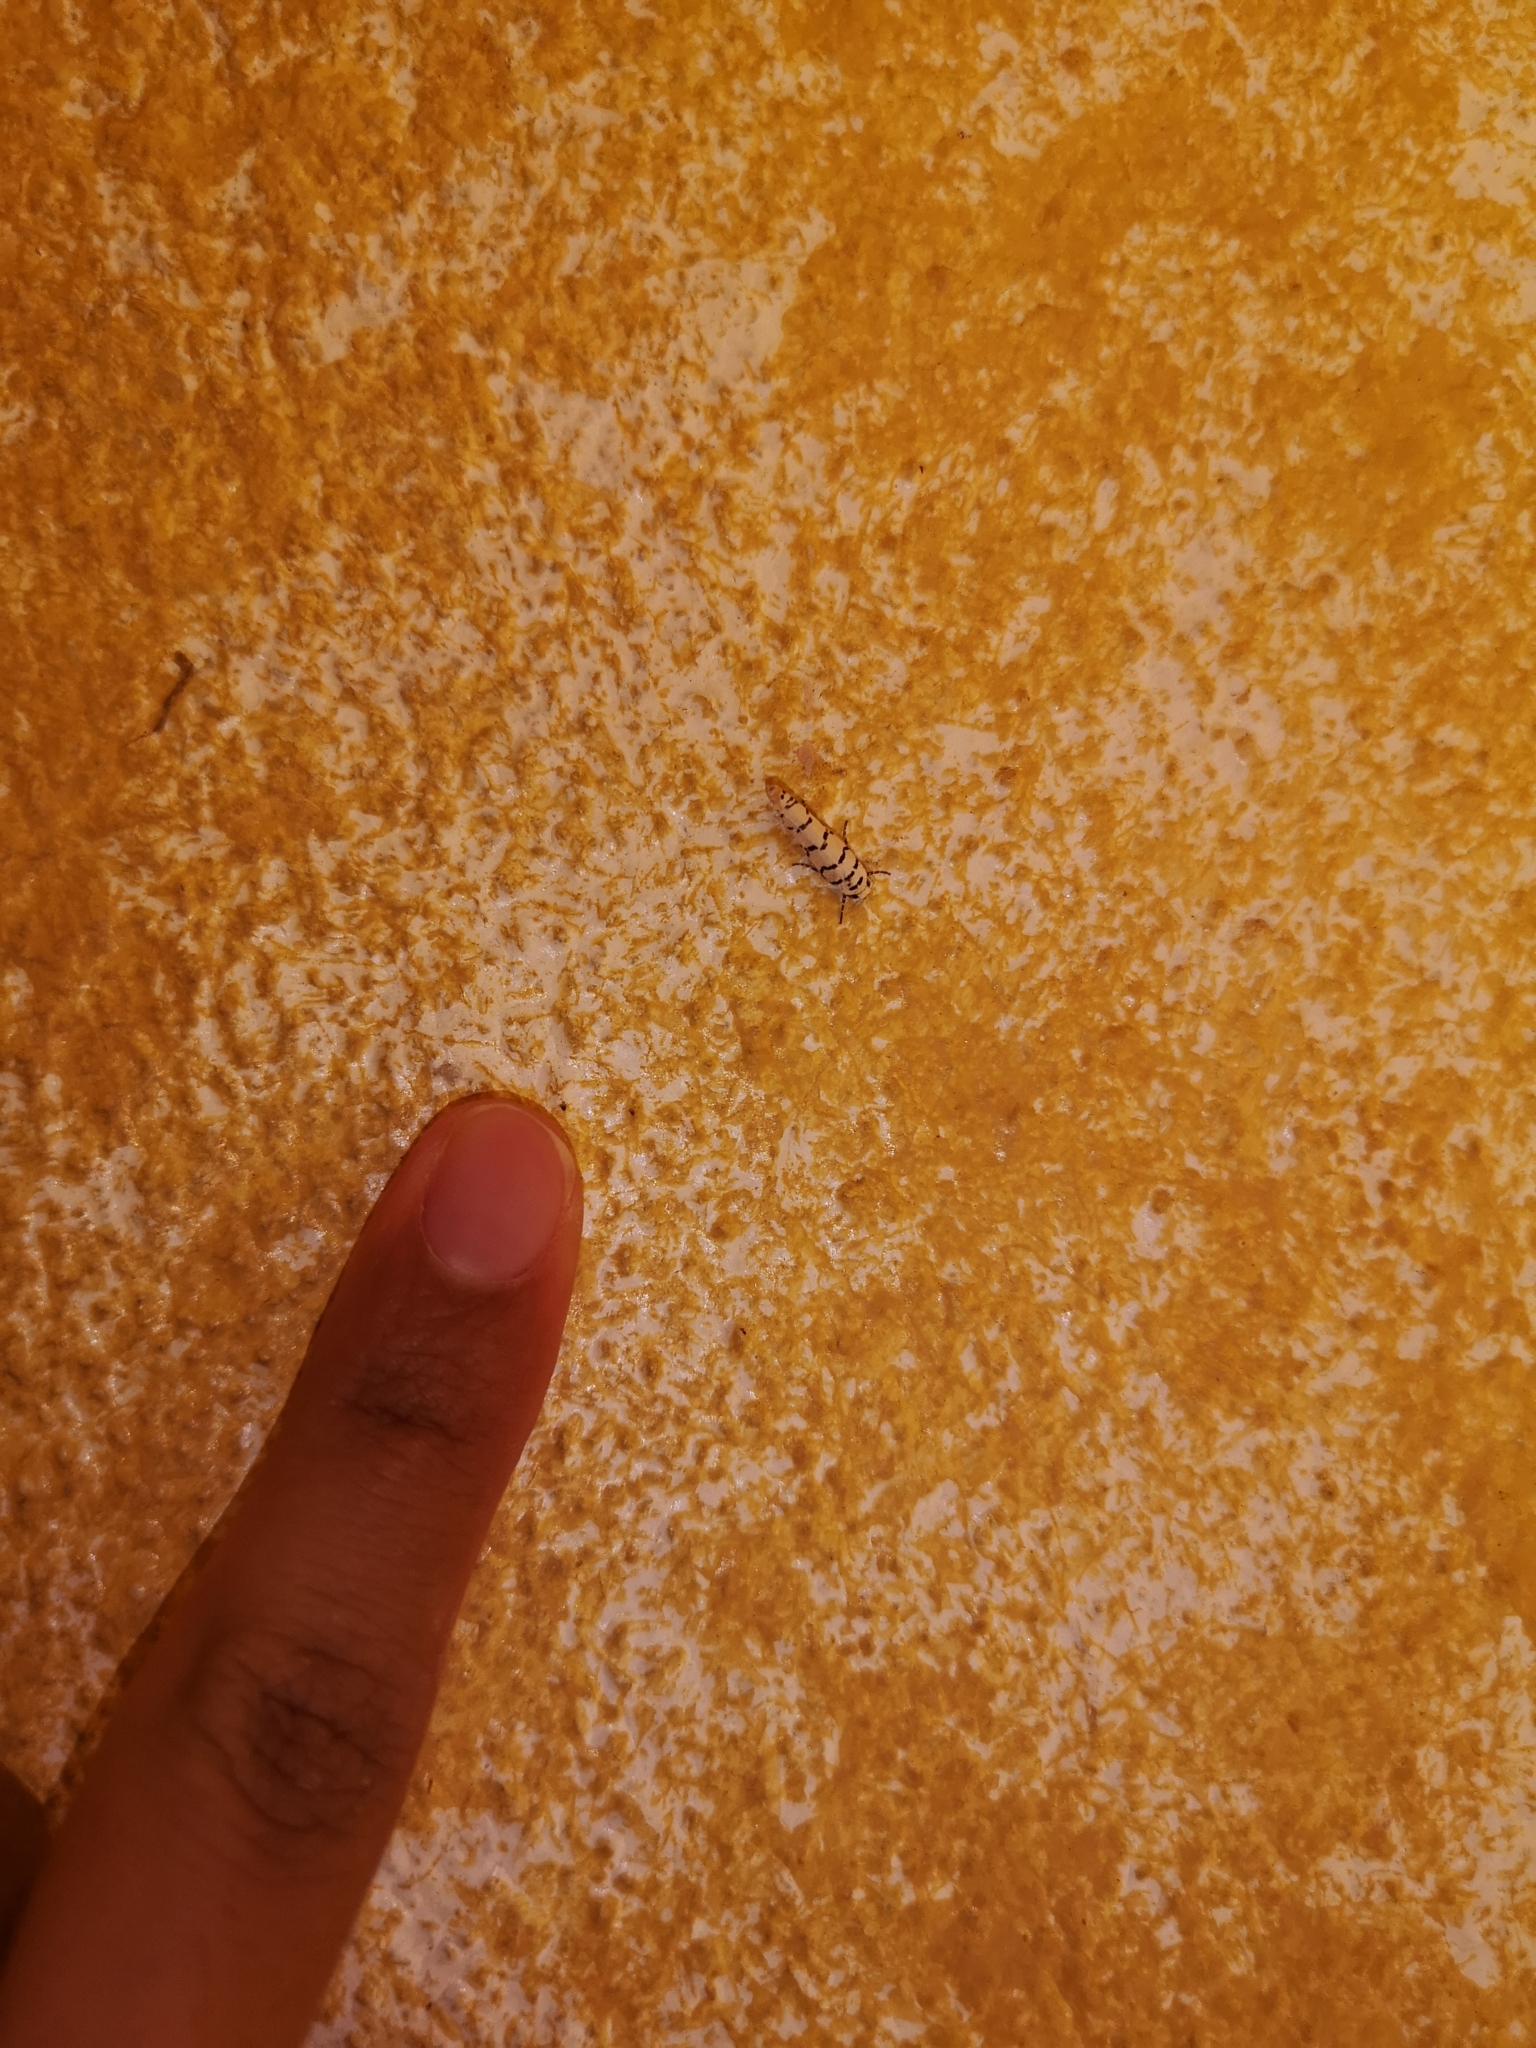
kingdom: Animalia
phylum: Arthropoda
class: Insecta
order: Lepidoptera
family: Ethmiidae
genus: Ethmia
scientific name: Ethmia delliella
